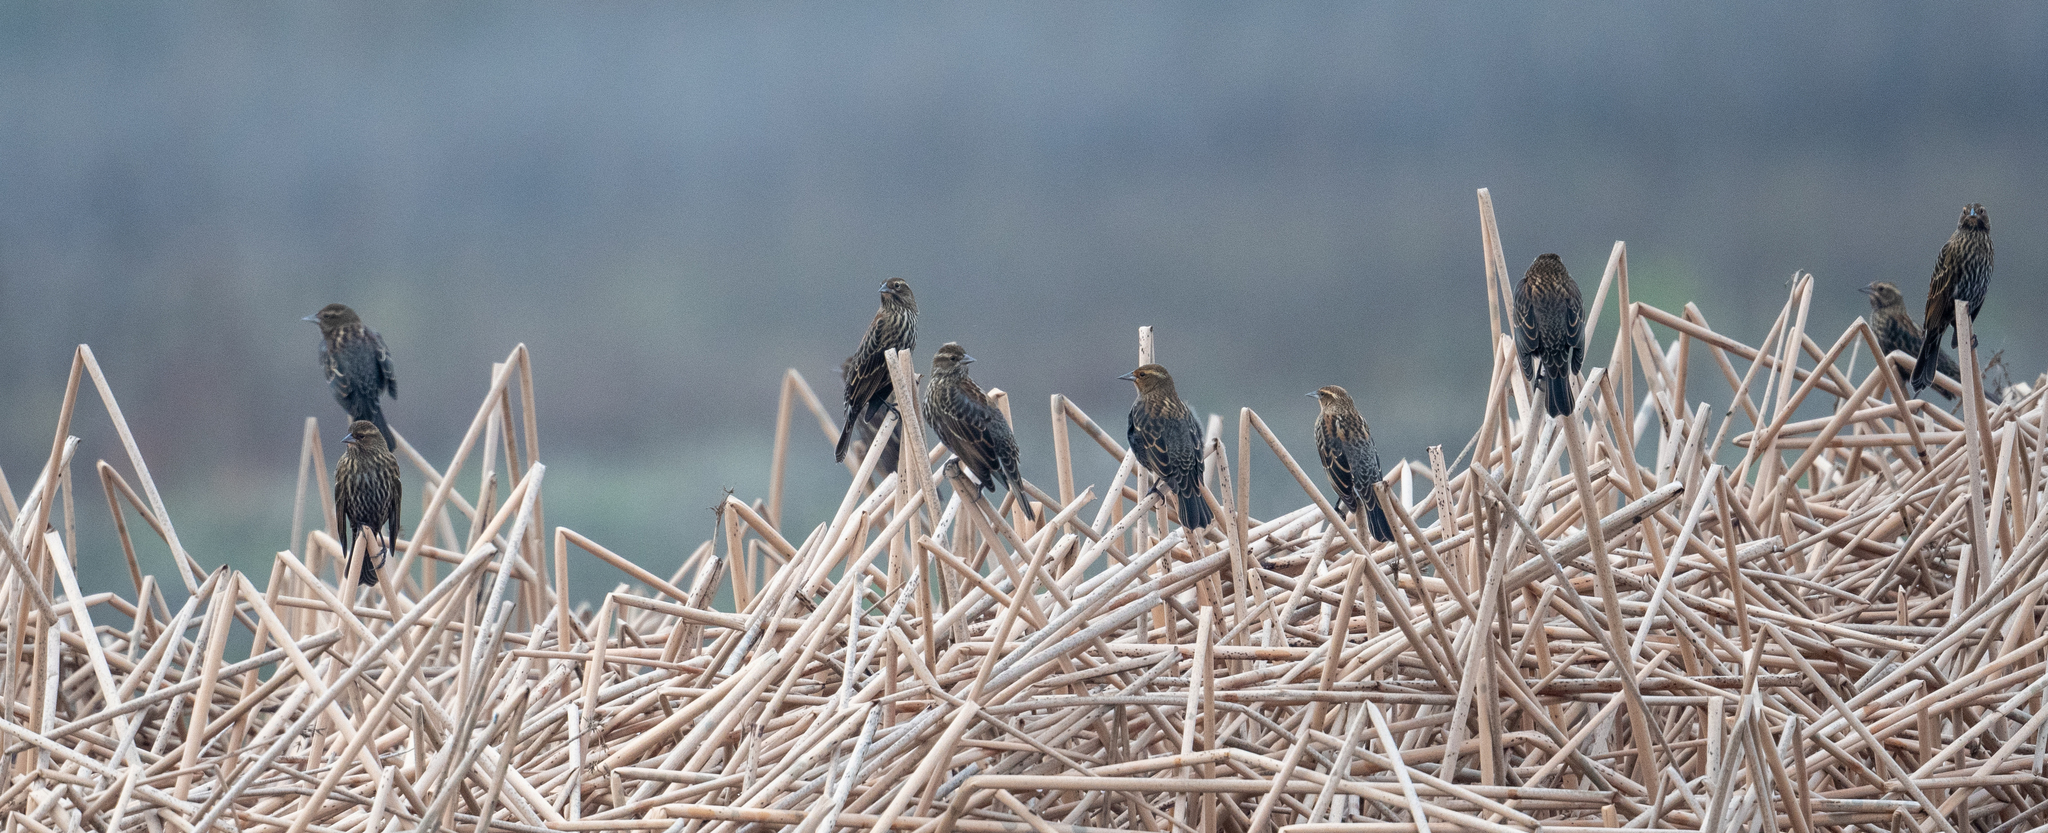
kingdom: Animalia
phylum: Chordata
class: Aves
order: Passeriformes
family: Icteridae
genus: Agelaius
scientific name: Agelaius phoeniceus
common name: Red-winged blackbird
